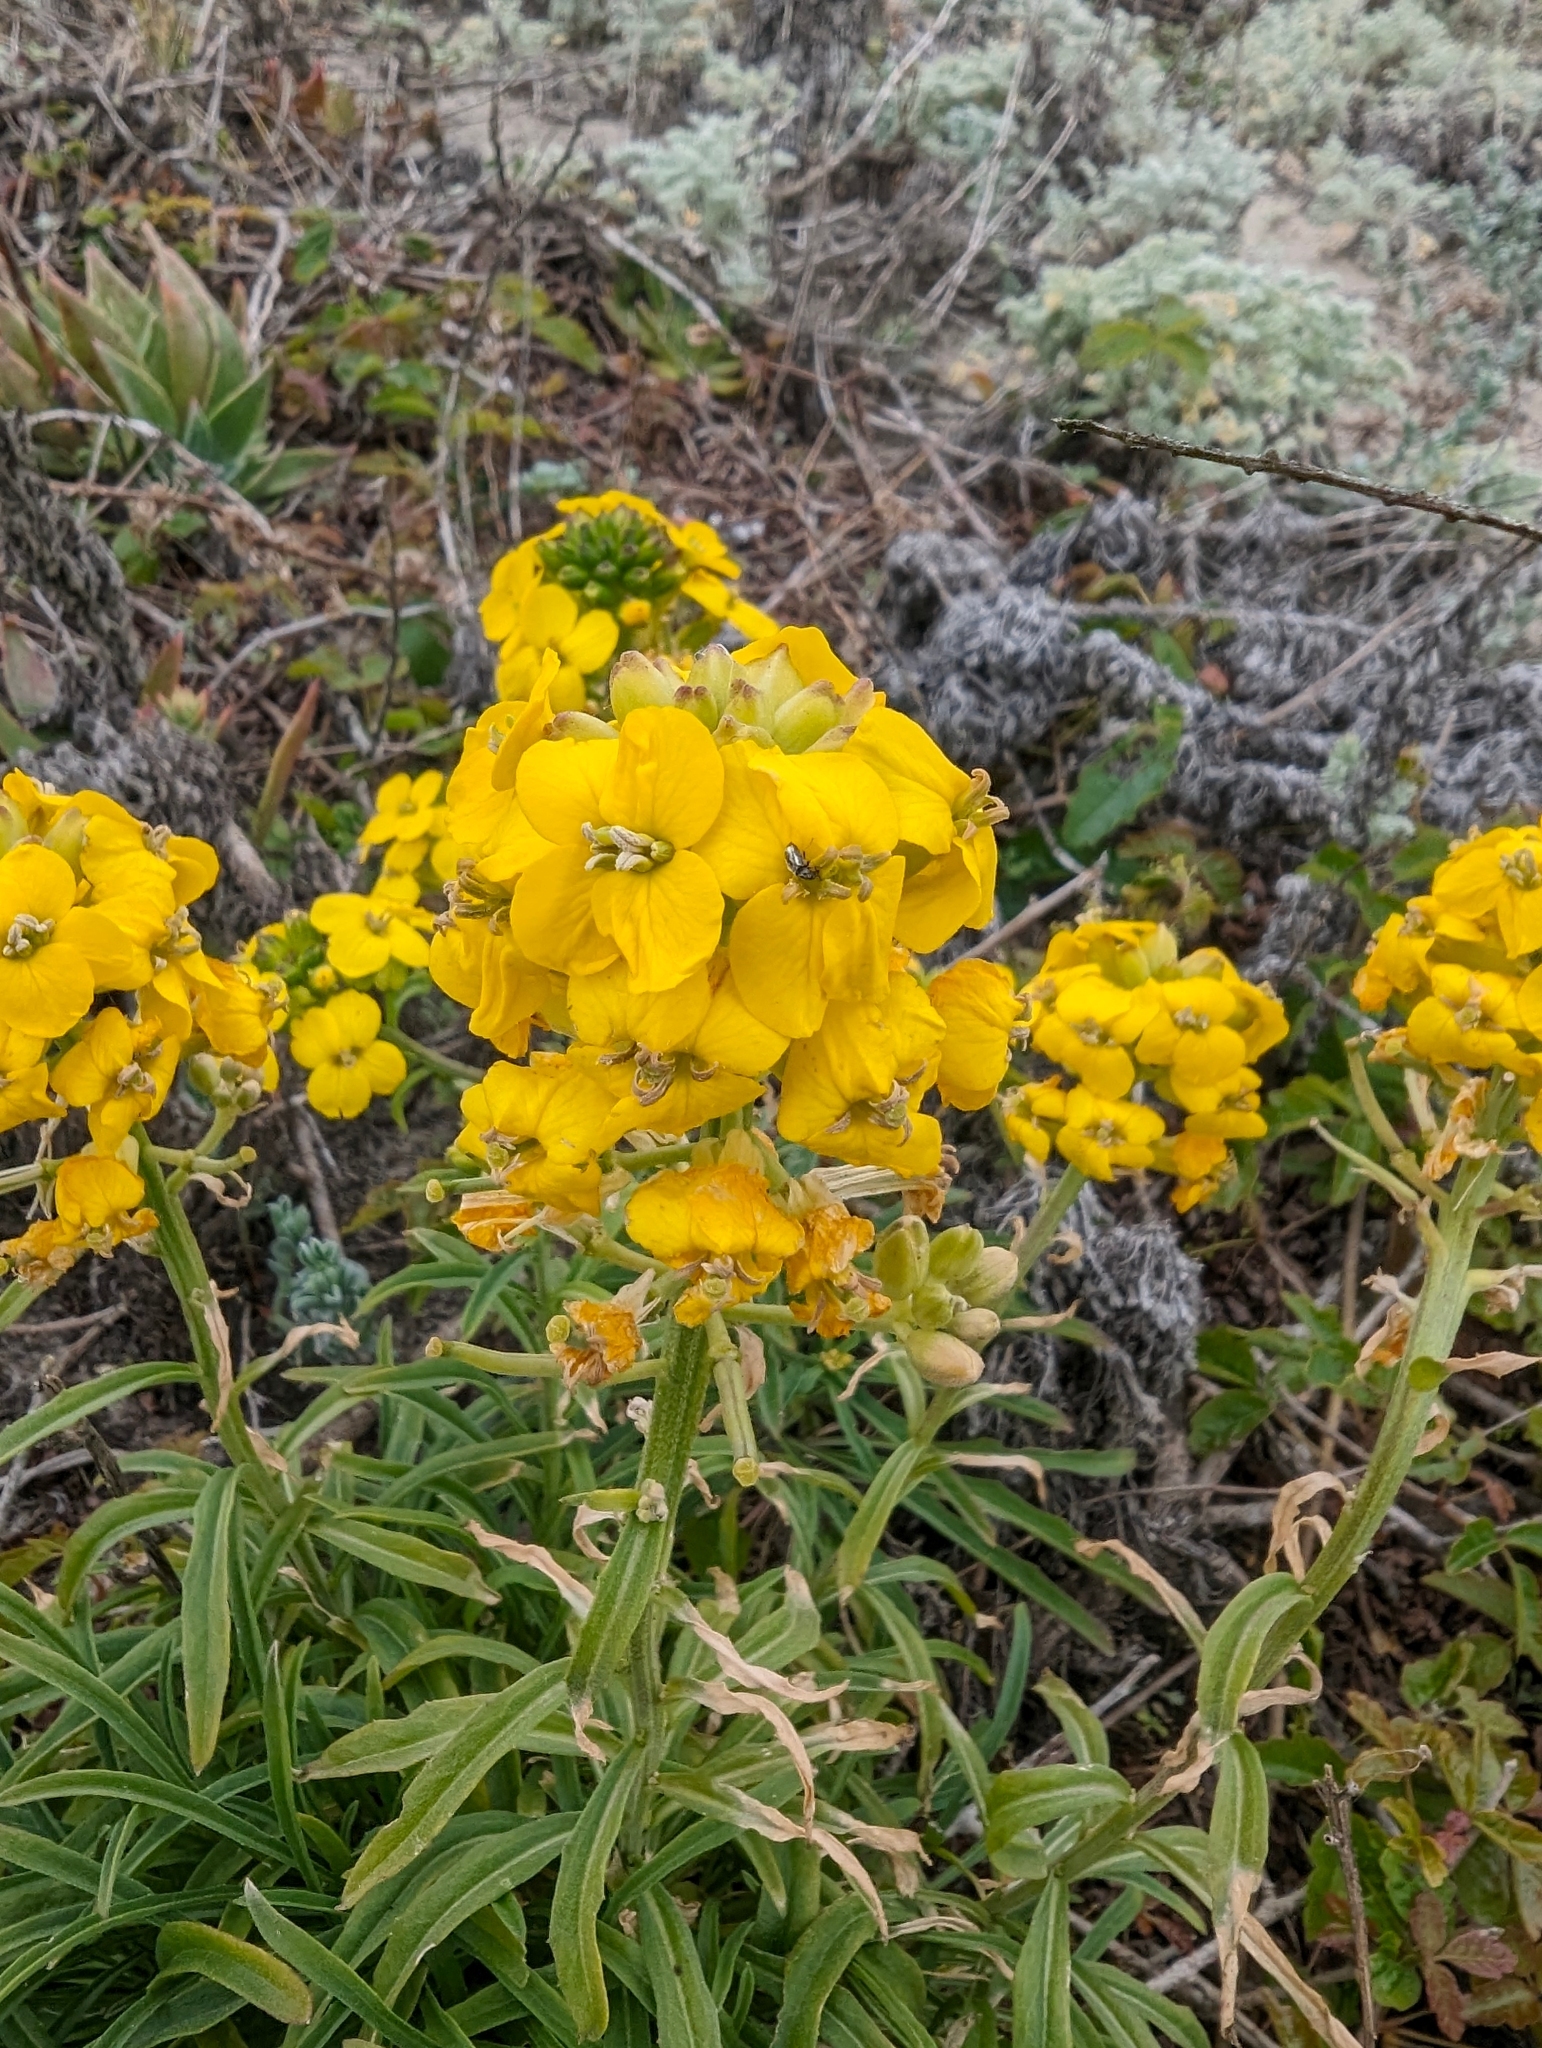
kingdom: Plantae
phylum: Tracheophyta
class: Magnoliopsida
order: Brassicales
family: Brassicaceae
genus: Erysimum
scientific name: Erysimum ammophilum
